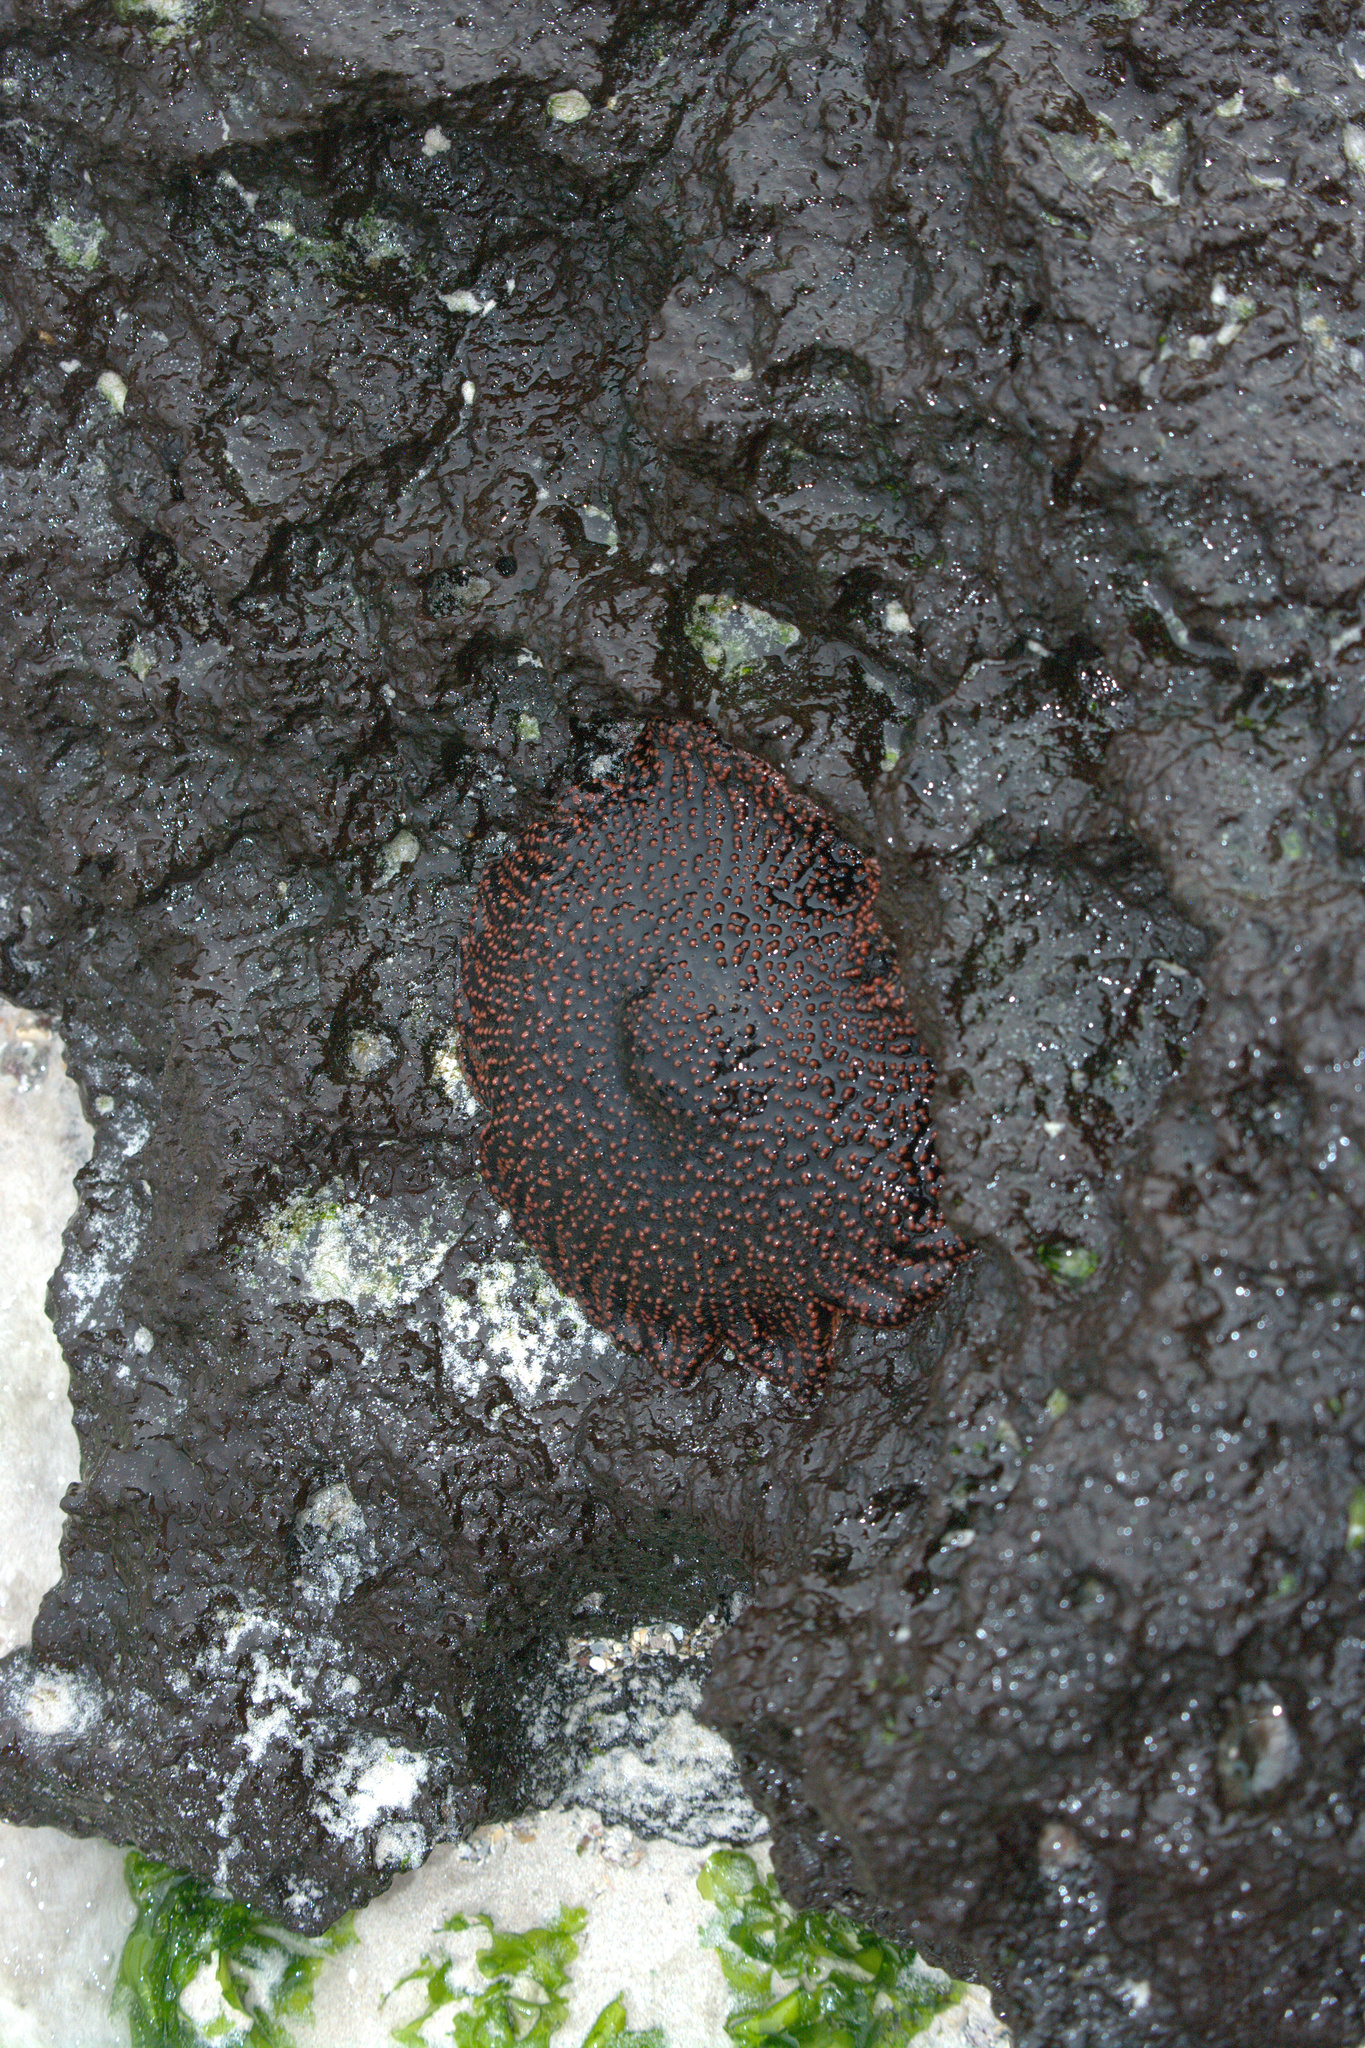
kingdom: Animalia
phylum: Echinodermata
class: Asteroidea
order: Forcipulatida
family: Heliasteridae
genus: Heliaster
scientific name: Heliaster cumingi
